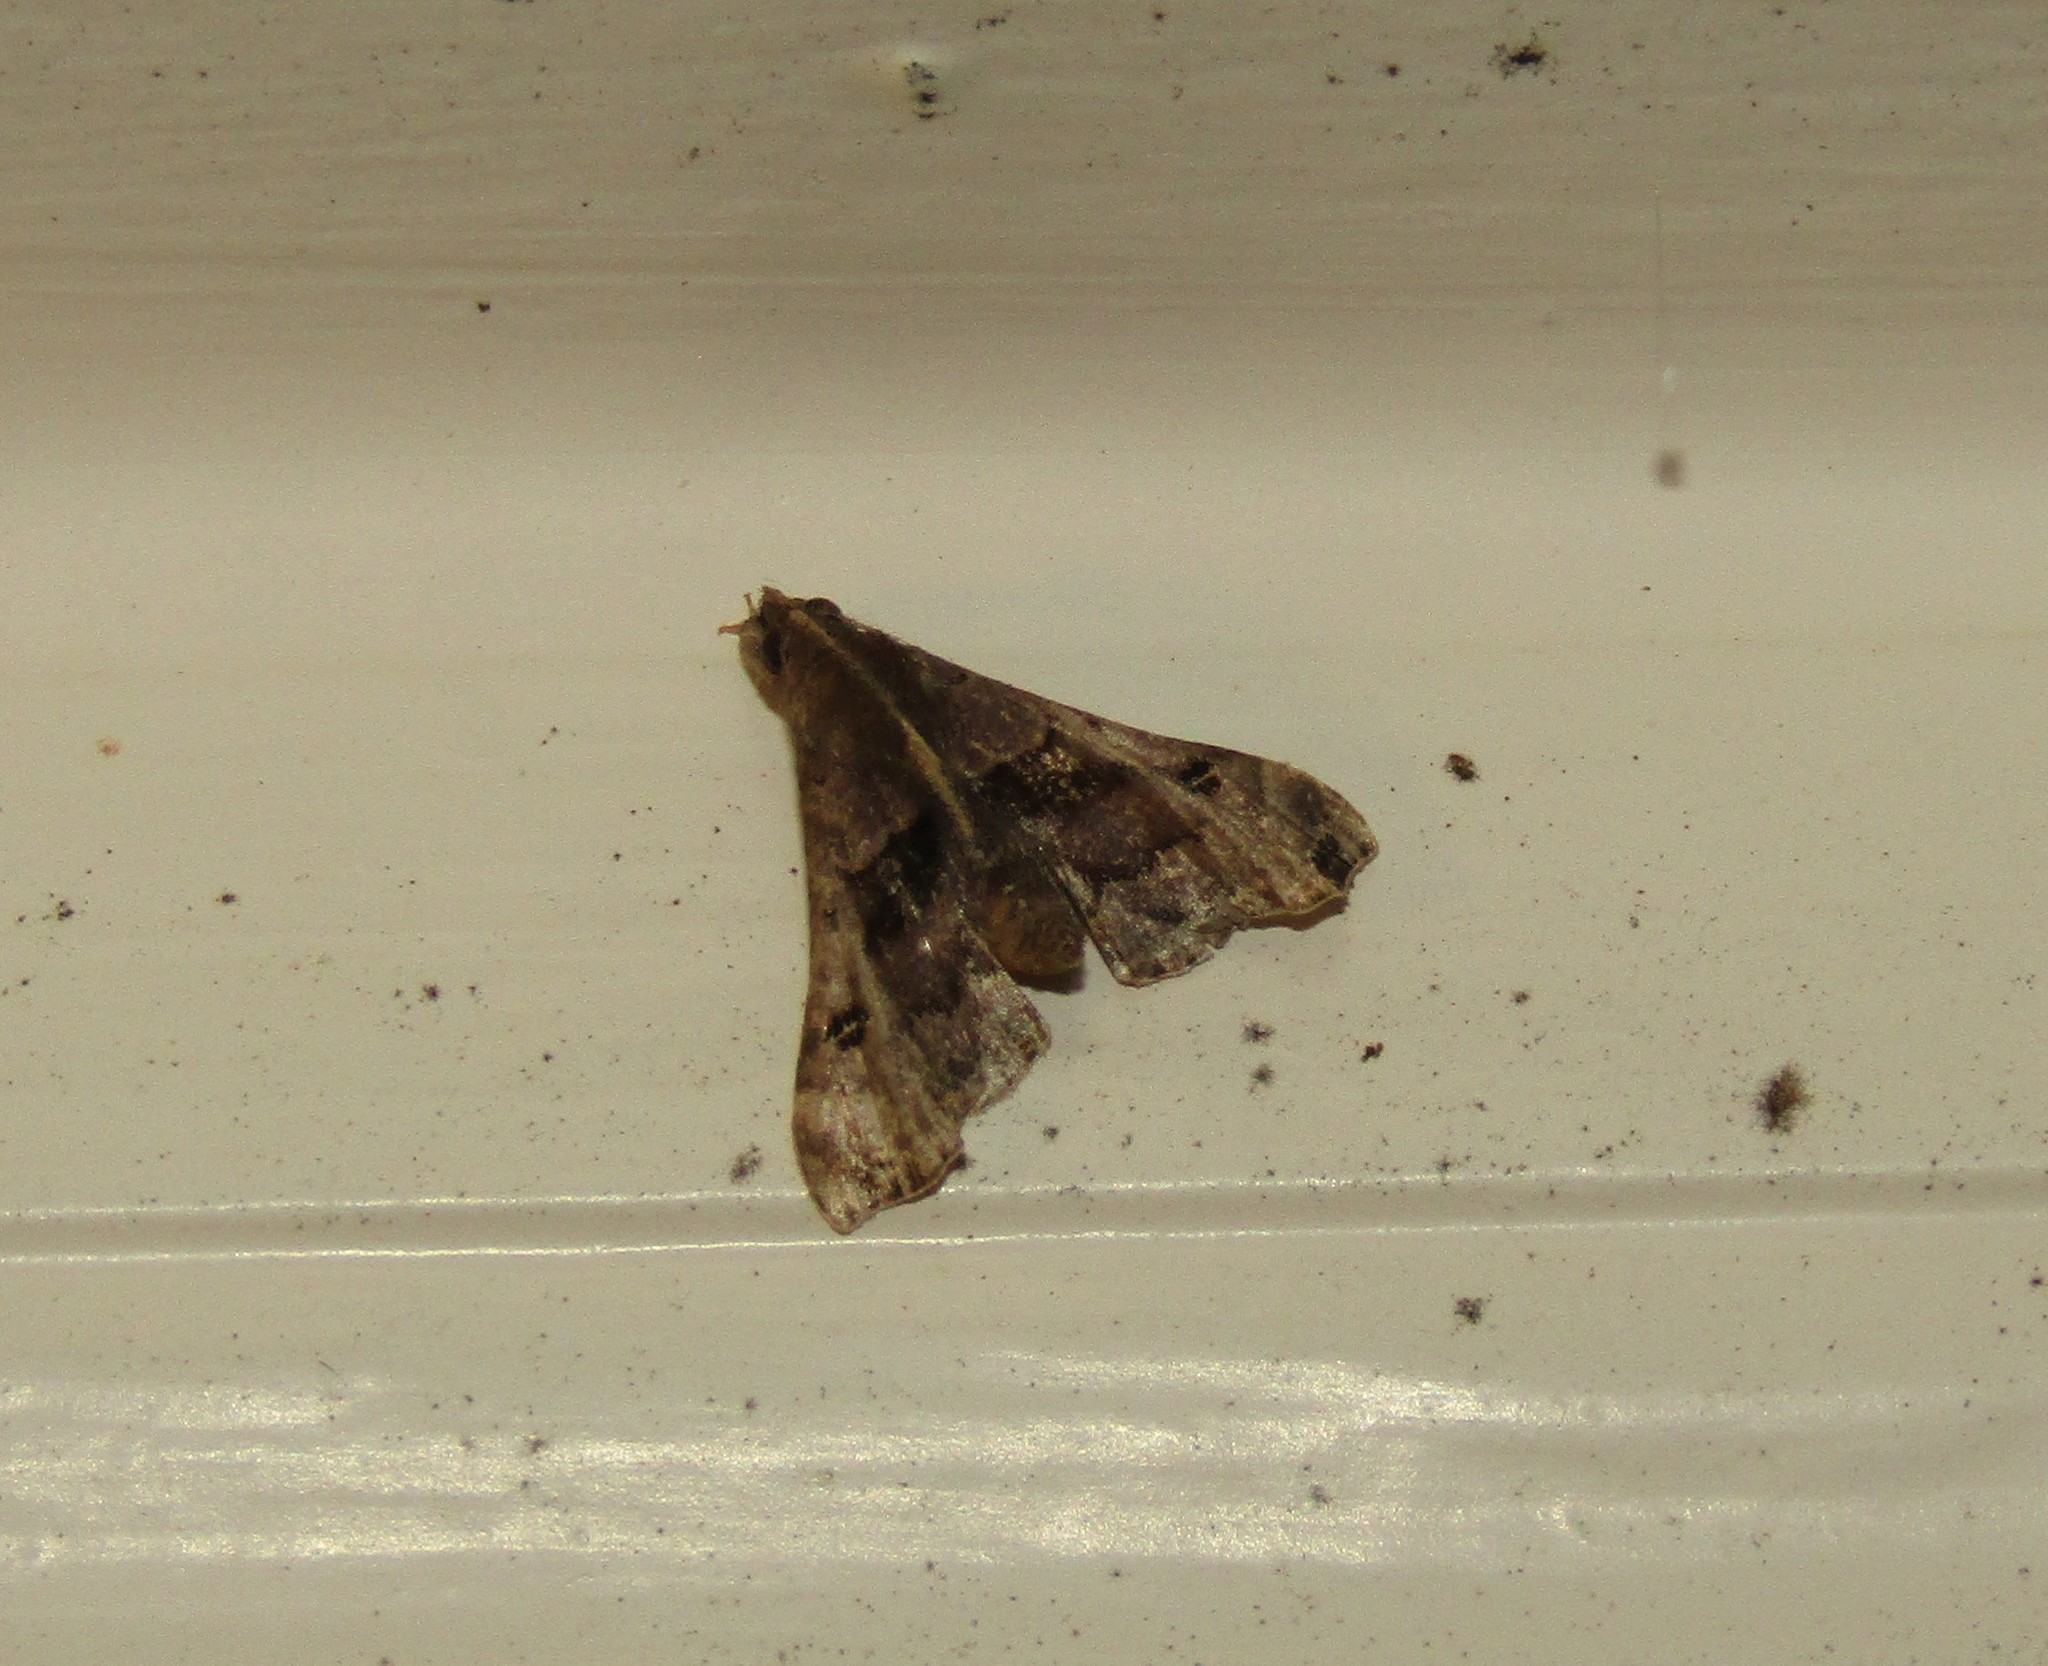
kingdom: Animalia
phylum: Arthropoda
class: Insecta
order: Lepidoptera
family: Erebidae
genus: Palthis
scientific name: Palthis asopialis
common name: Faint-spotted palthis moth
